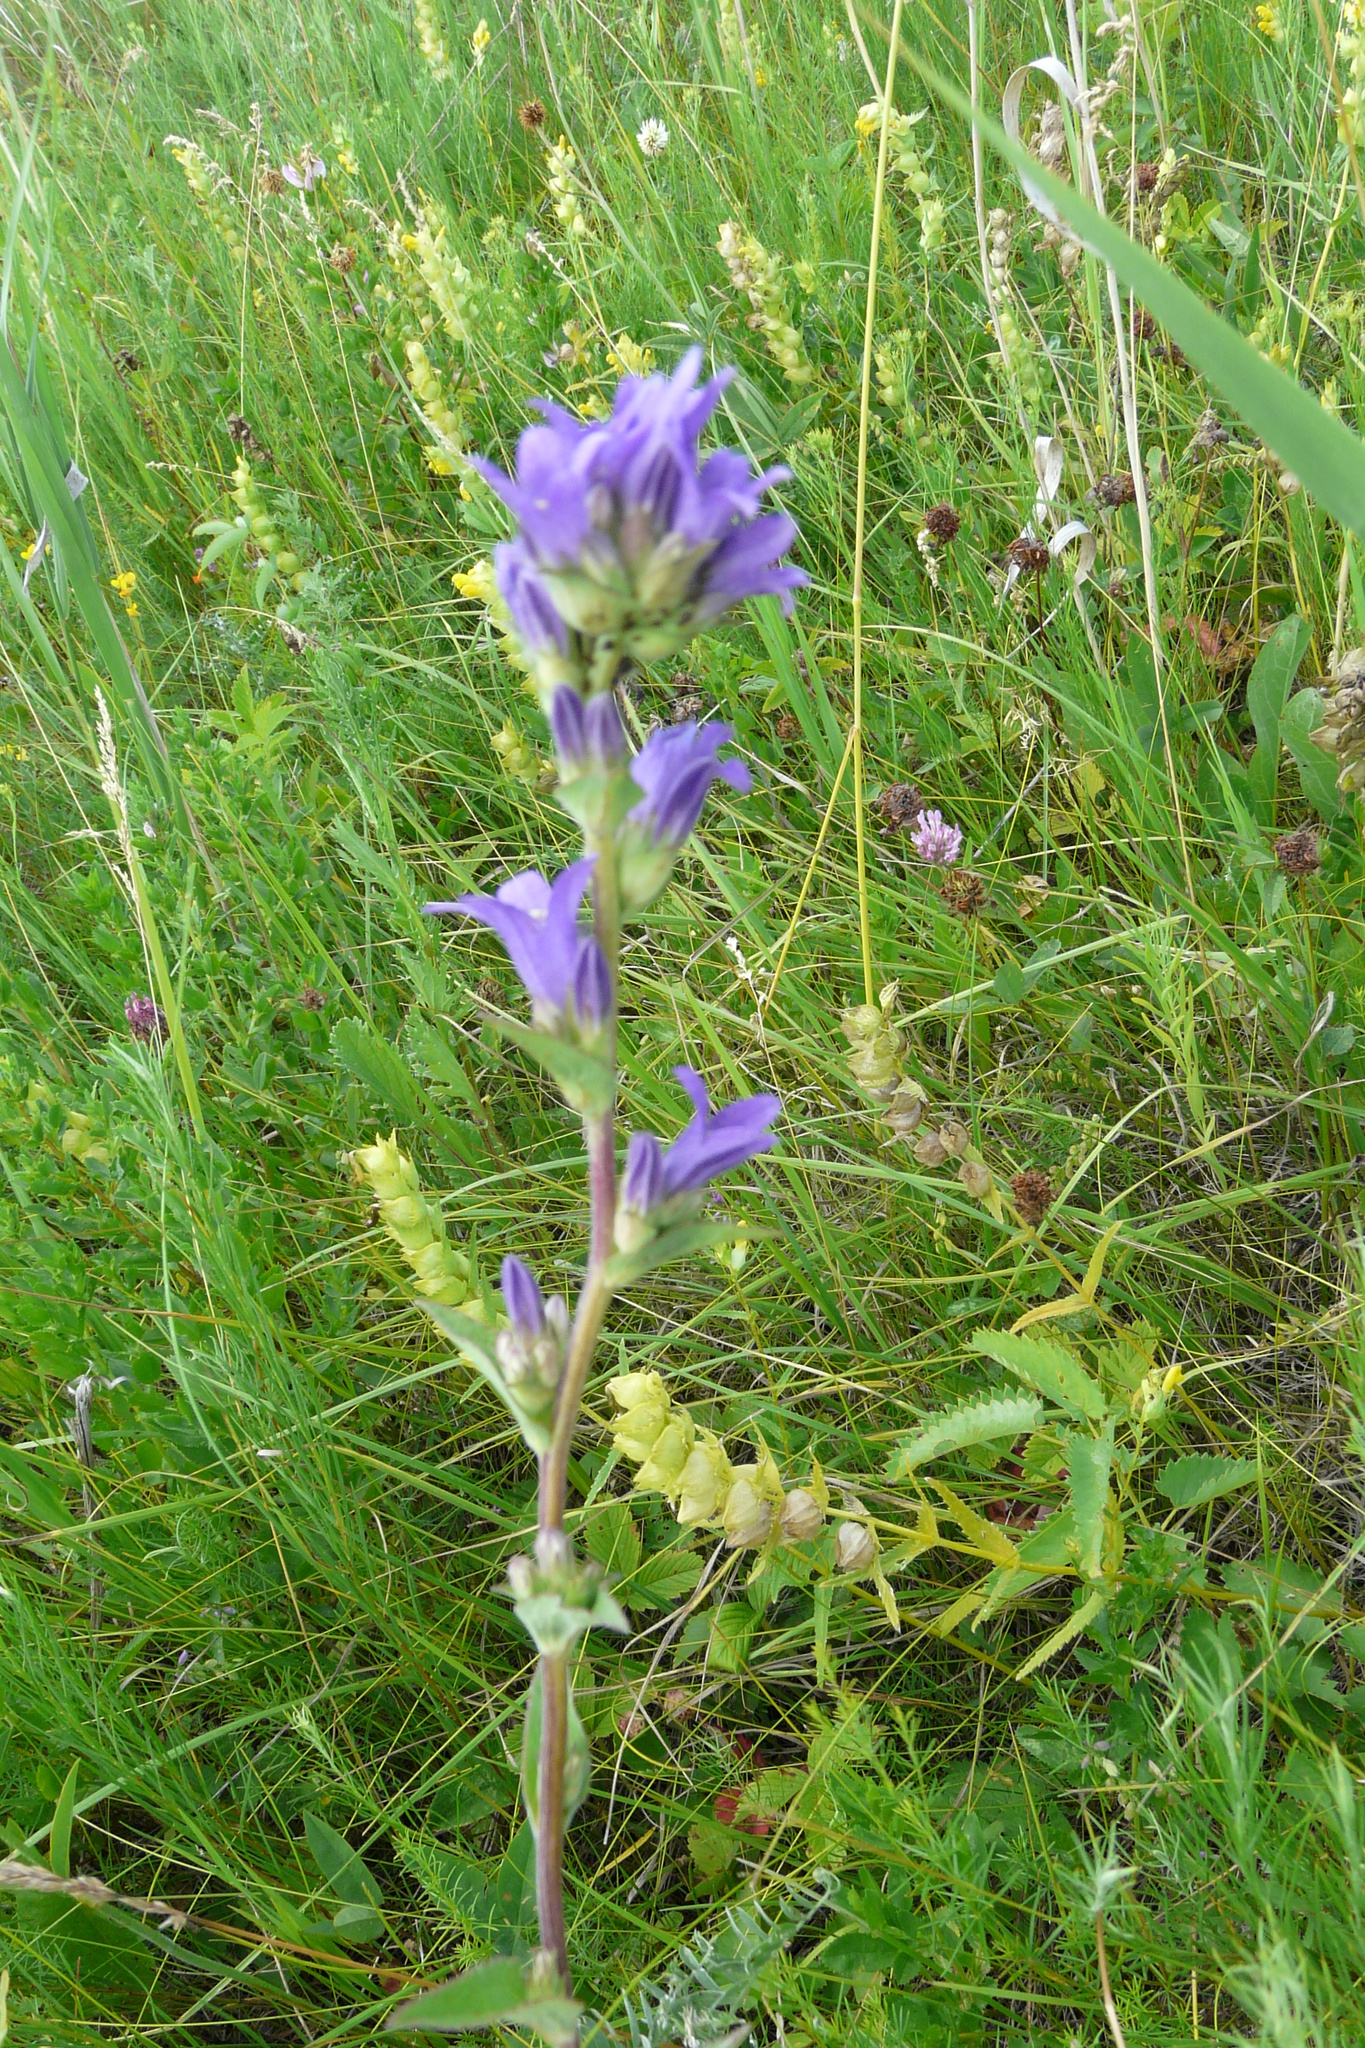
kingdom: Plantae
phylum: Tracheophyta
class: Magnoliopsida
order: Asterales
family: Campanulaceae
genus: Campanula
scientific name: Campanula glomerata
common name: Clustered bellflower
